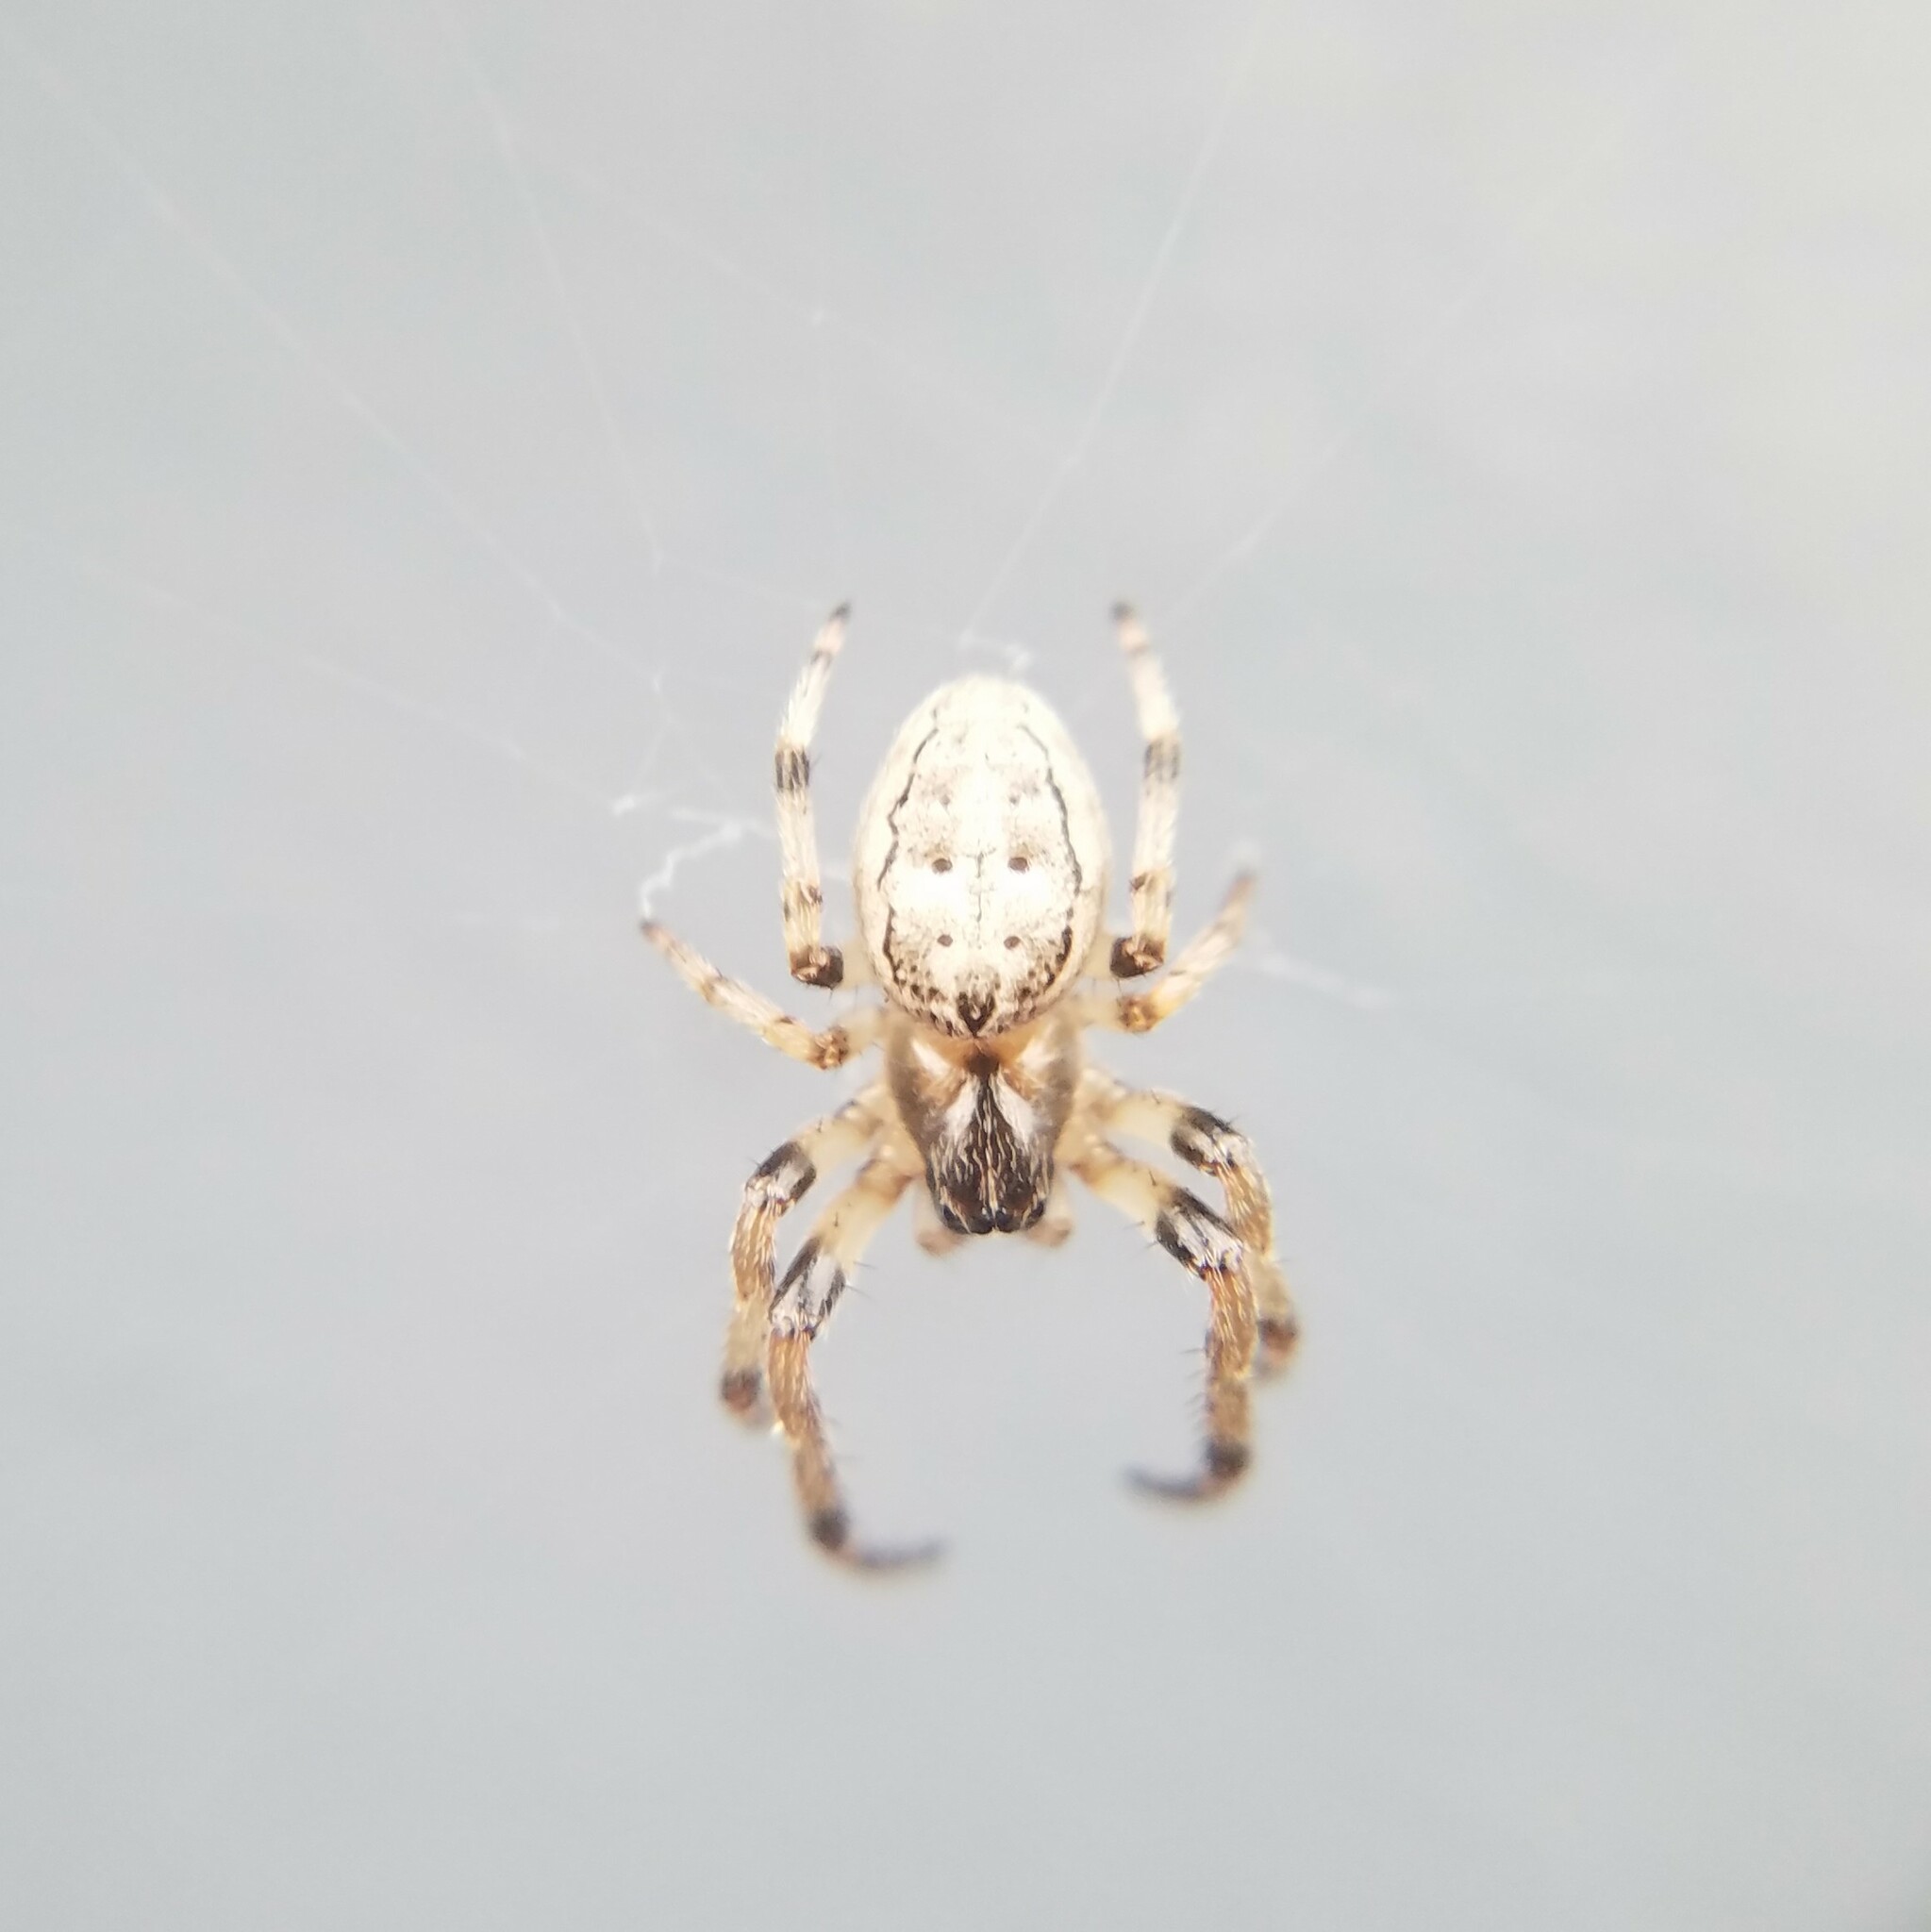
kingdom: Animalia
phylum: Arthropoda
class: Arachnida
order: Araneae
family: Araneidae
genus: Larinioides
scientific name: Larinioides cornutus
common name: Furrow orbweaver
